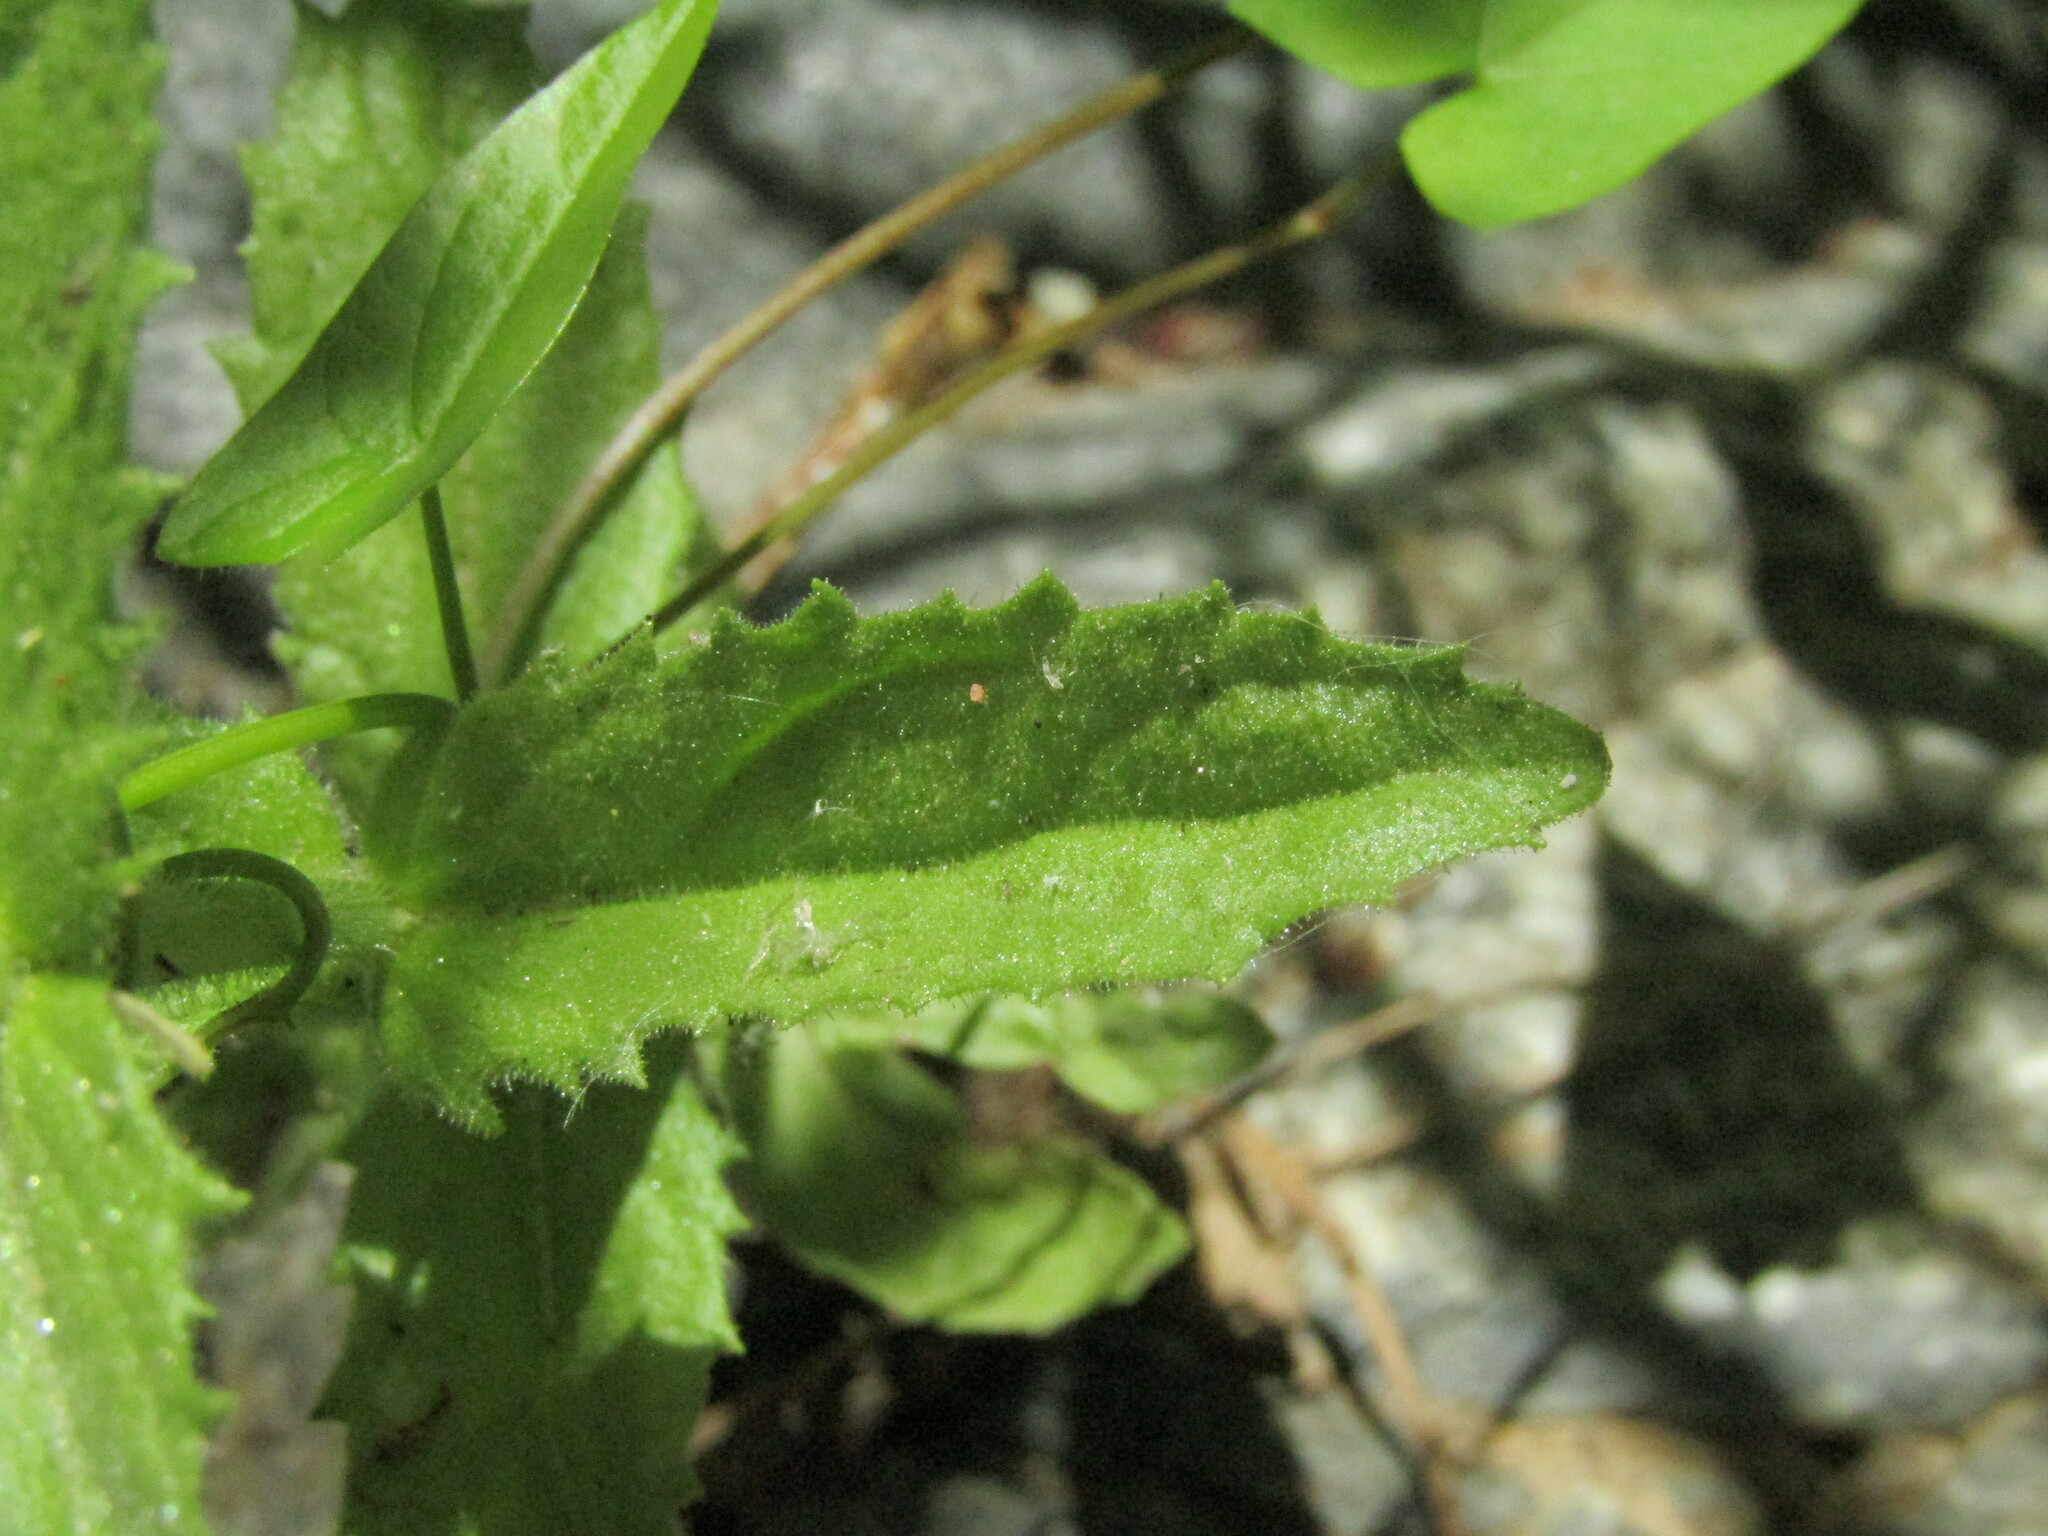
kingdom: Plantae
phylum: Tracheophyta
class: Magnoliopsida
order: Lamiales
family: Plantaginaceae
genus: Stemodia
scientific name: Stemodia durantifolia
